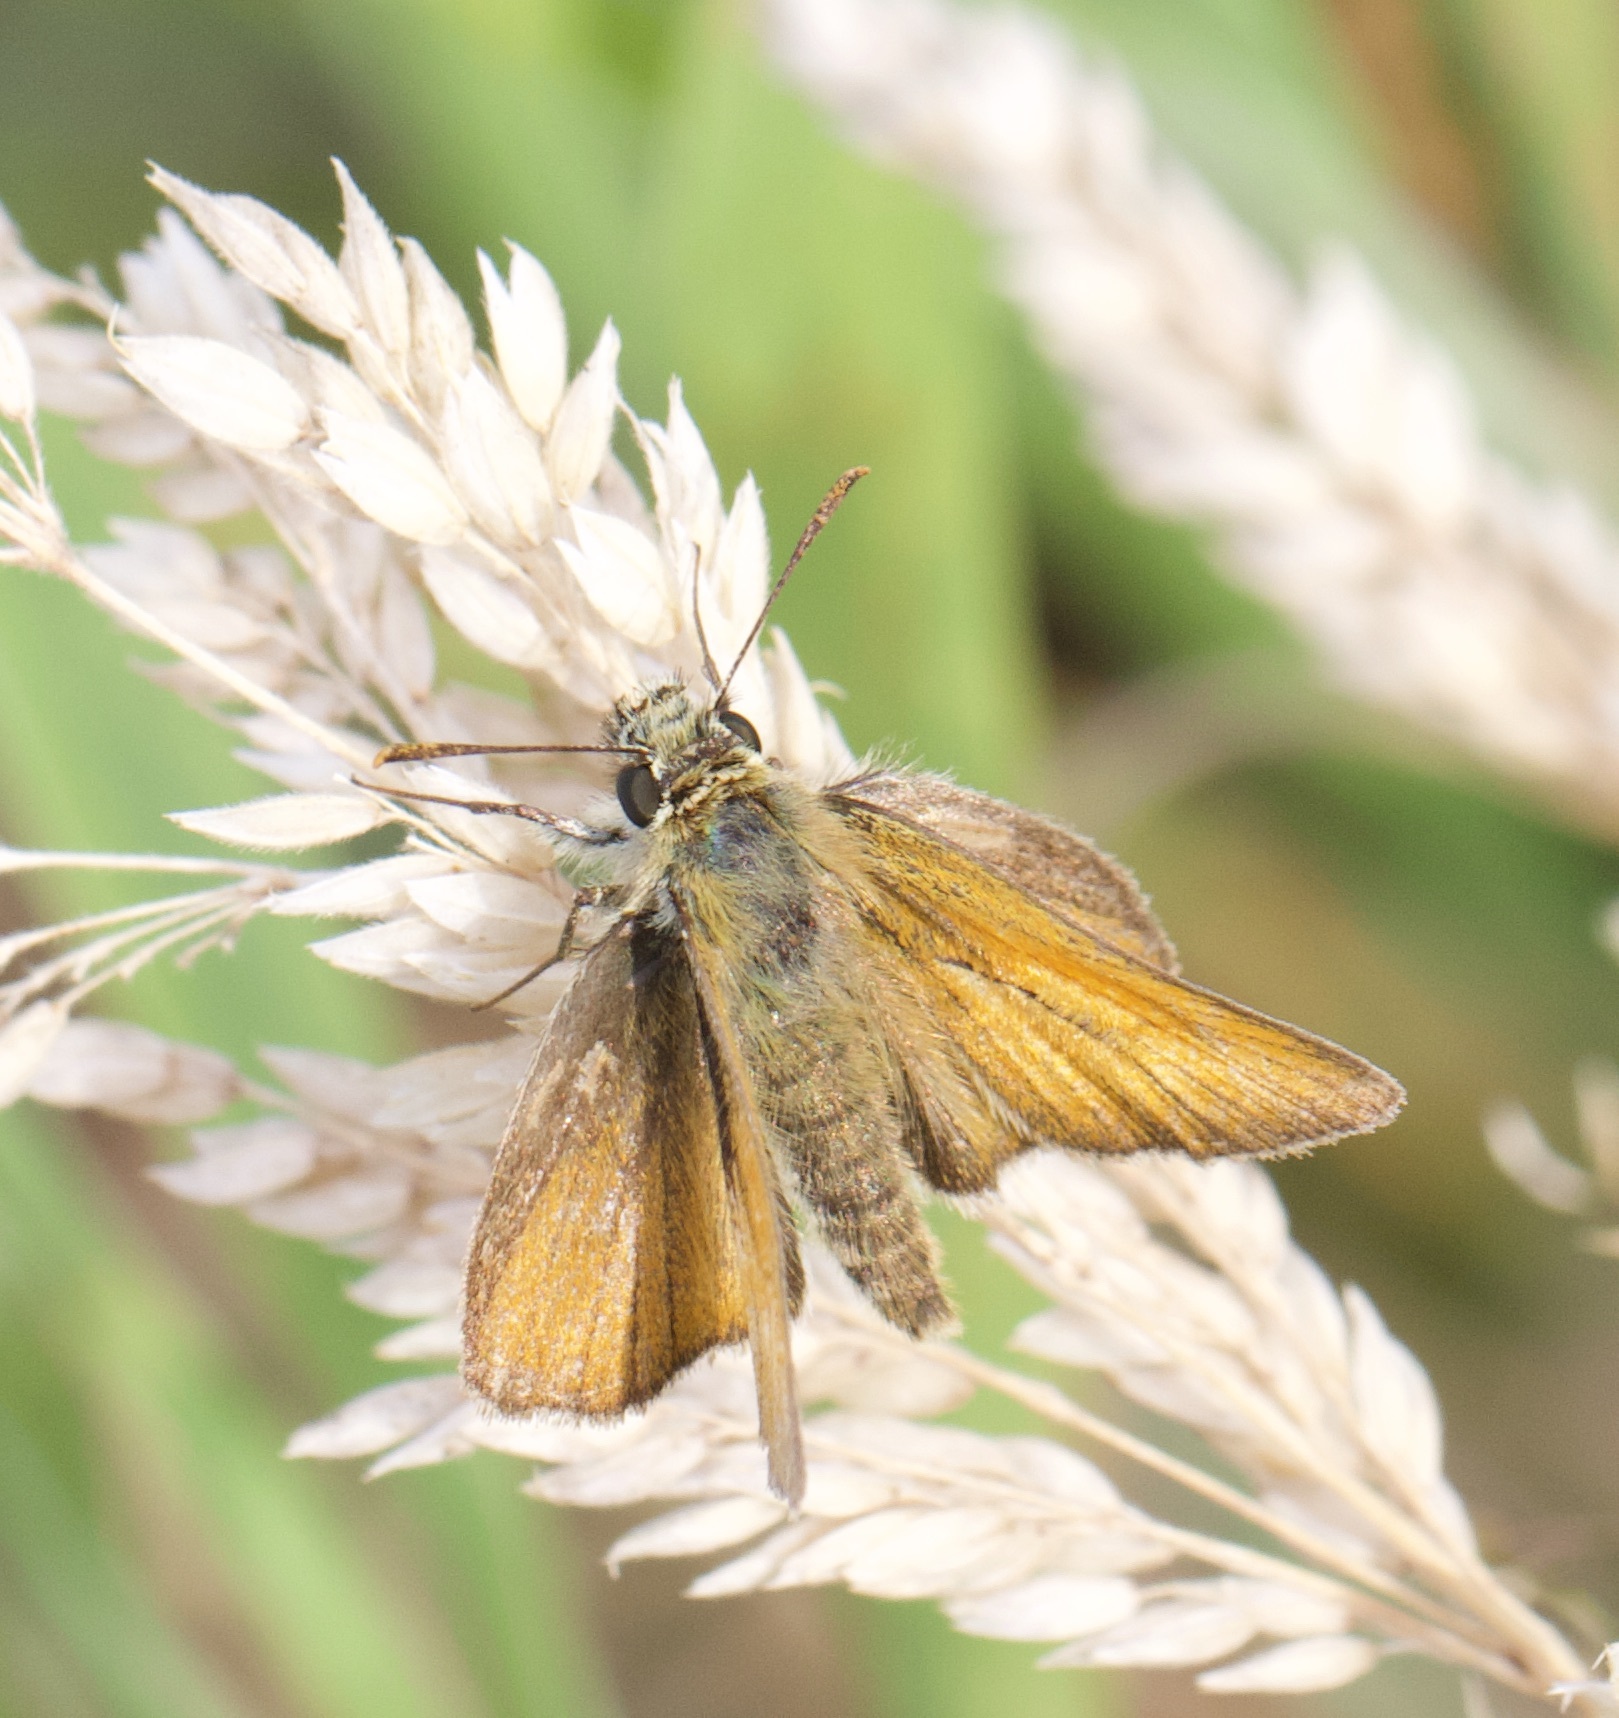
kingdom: Animalia
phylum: Arthropoda
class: Insecta
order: Lepidoptera
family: Hesperiidae
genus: Thymelicus
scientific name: Thymelicus sylvestris
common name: Small skipper
